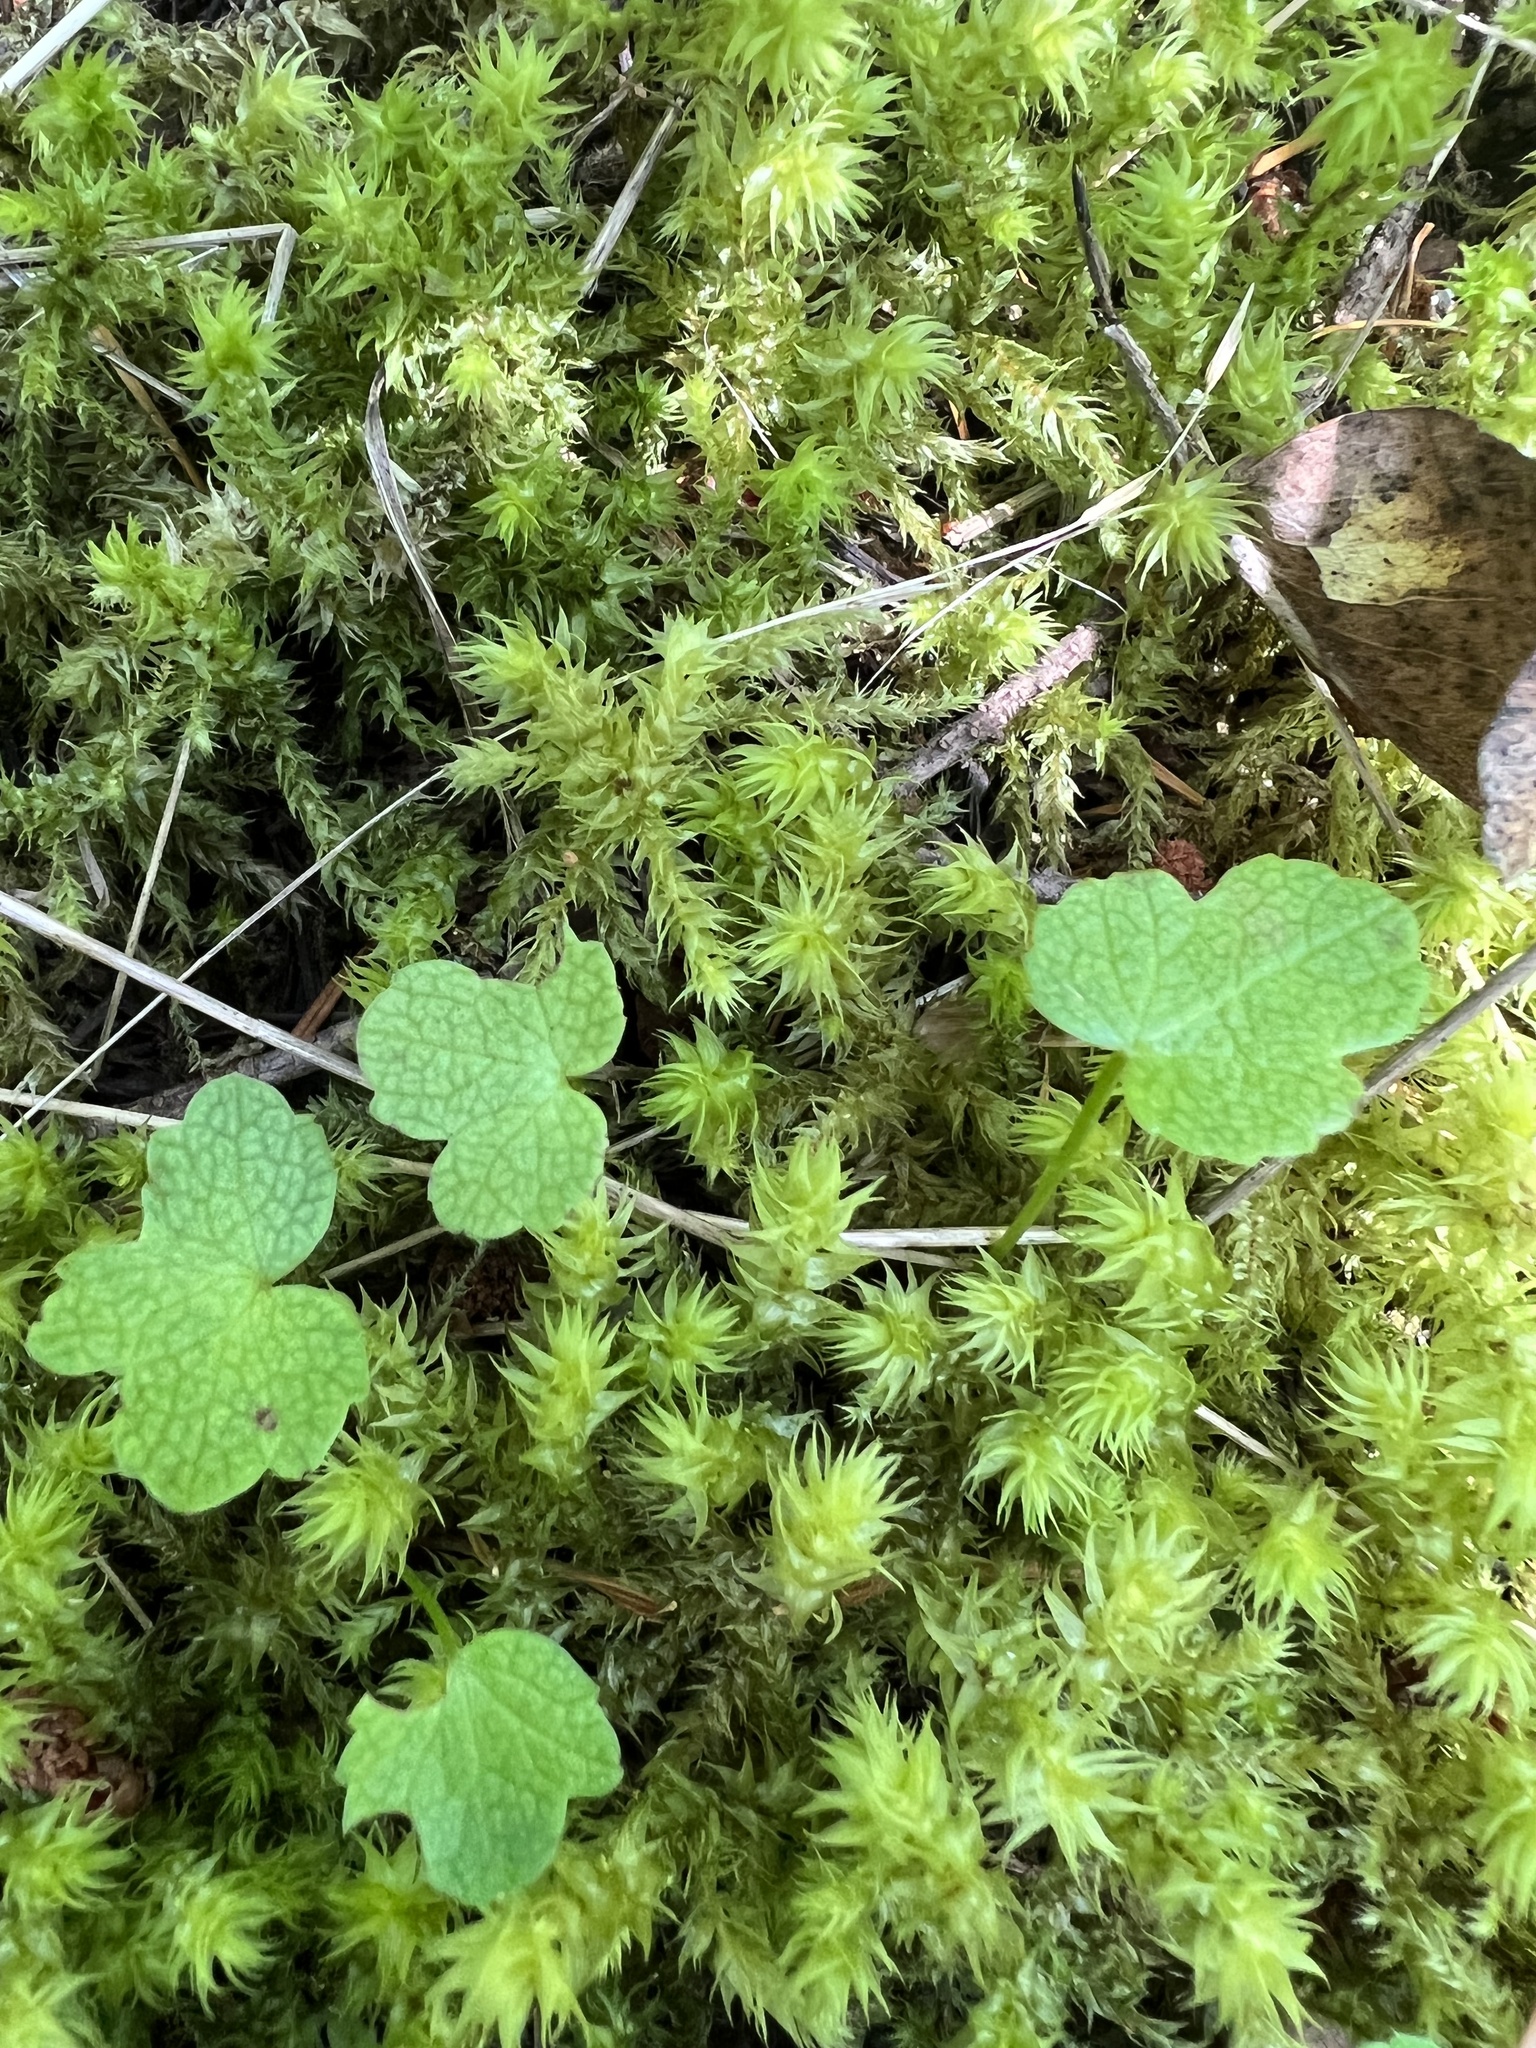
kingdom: Plantae
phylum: Tracheophyta
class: Magnoliopsida
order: Apiales
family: Apiaceae
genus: Sanicula
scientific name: Sanicula crassicaulis
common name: Western snakeroot
